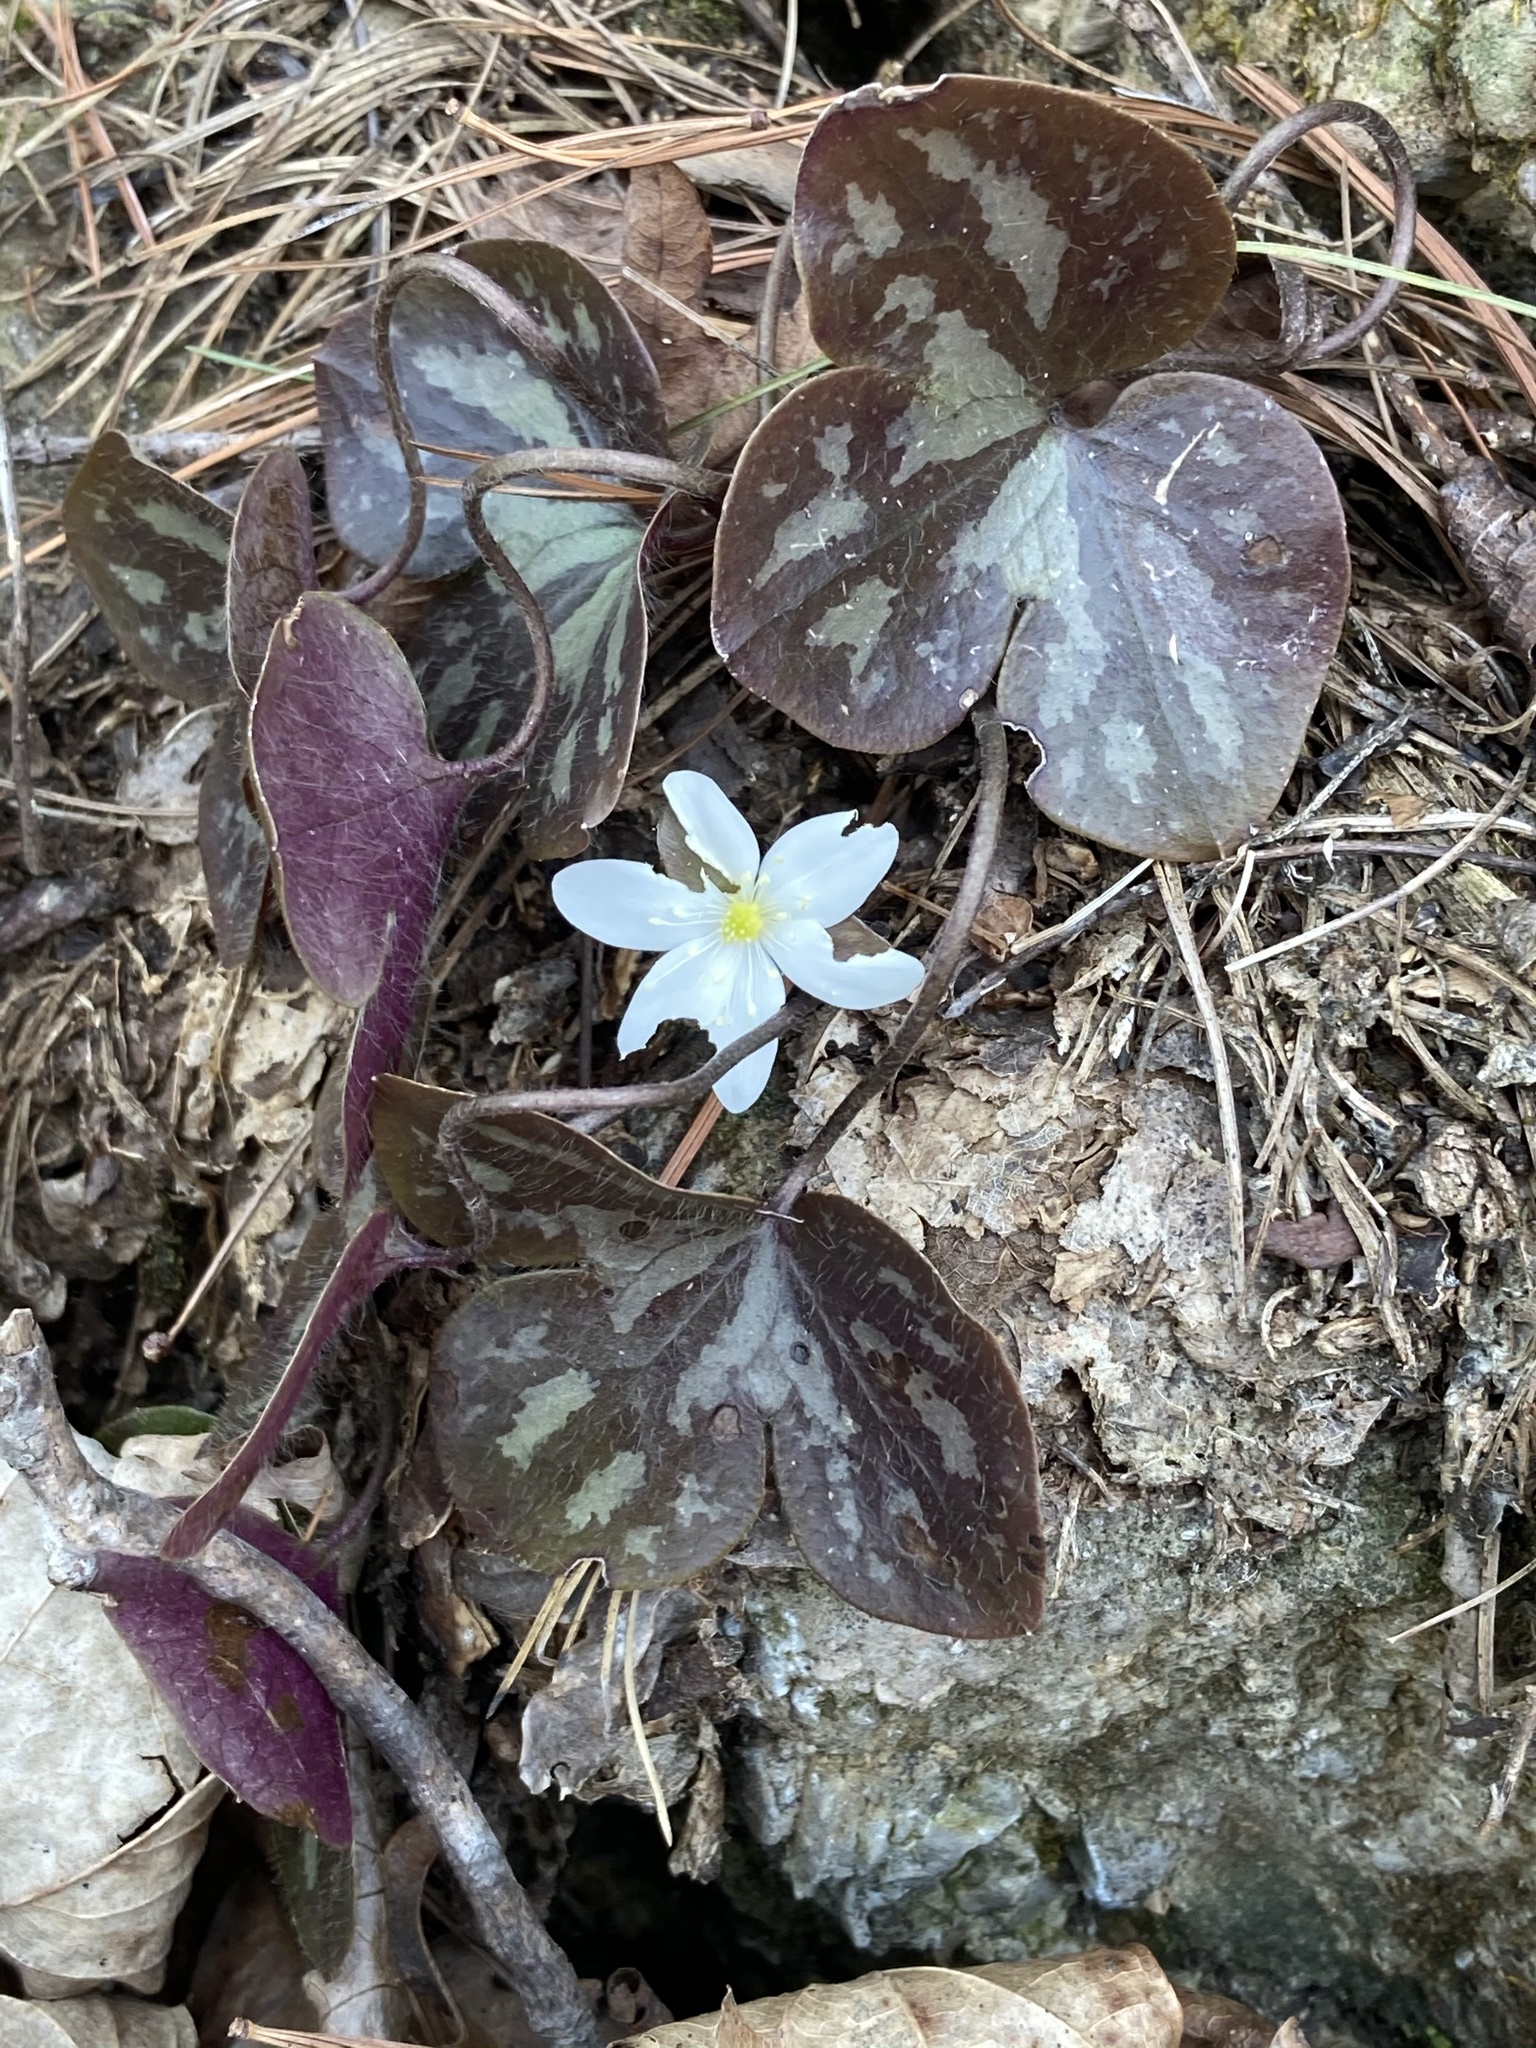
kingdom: Plantae
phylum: Tracheophyta
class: Magnoliopsida
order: Ranunculales
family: Ranunculaceae
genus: Hepatica
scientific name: Hepatica americana
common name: American hepatica
